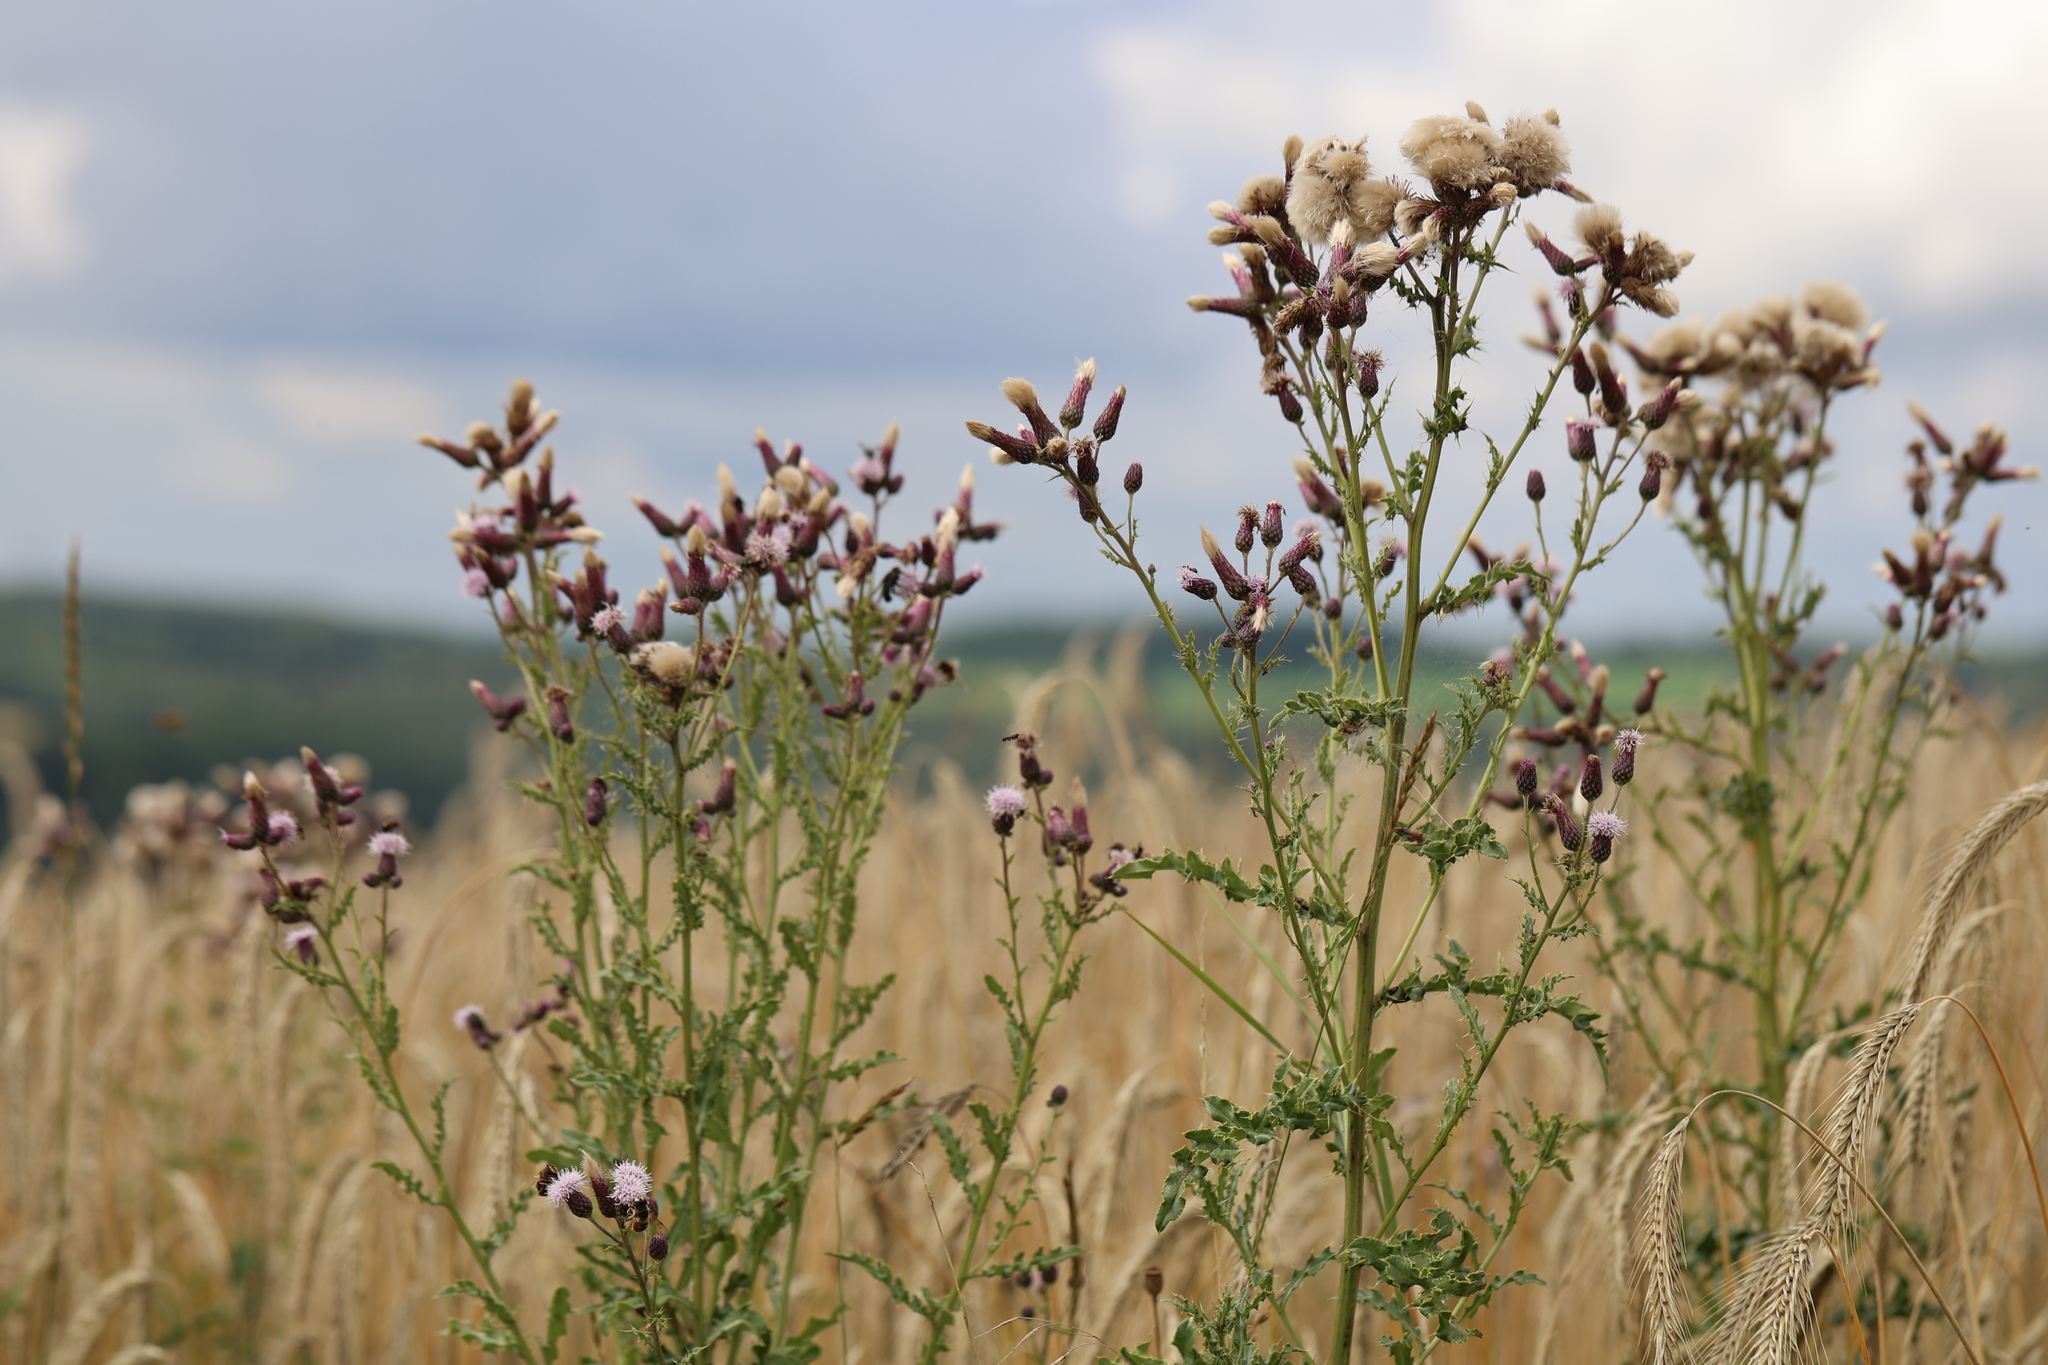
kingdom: Plantae
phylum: Tracheophyta
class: Magnoliopsida
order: Asterales
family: Asteraceae
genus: Cirsium
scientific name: Cirsium arvense
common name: Creeping thistle
